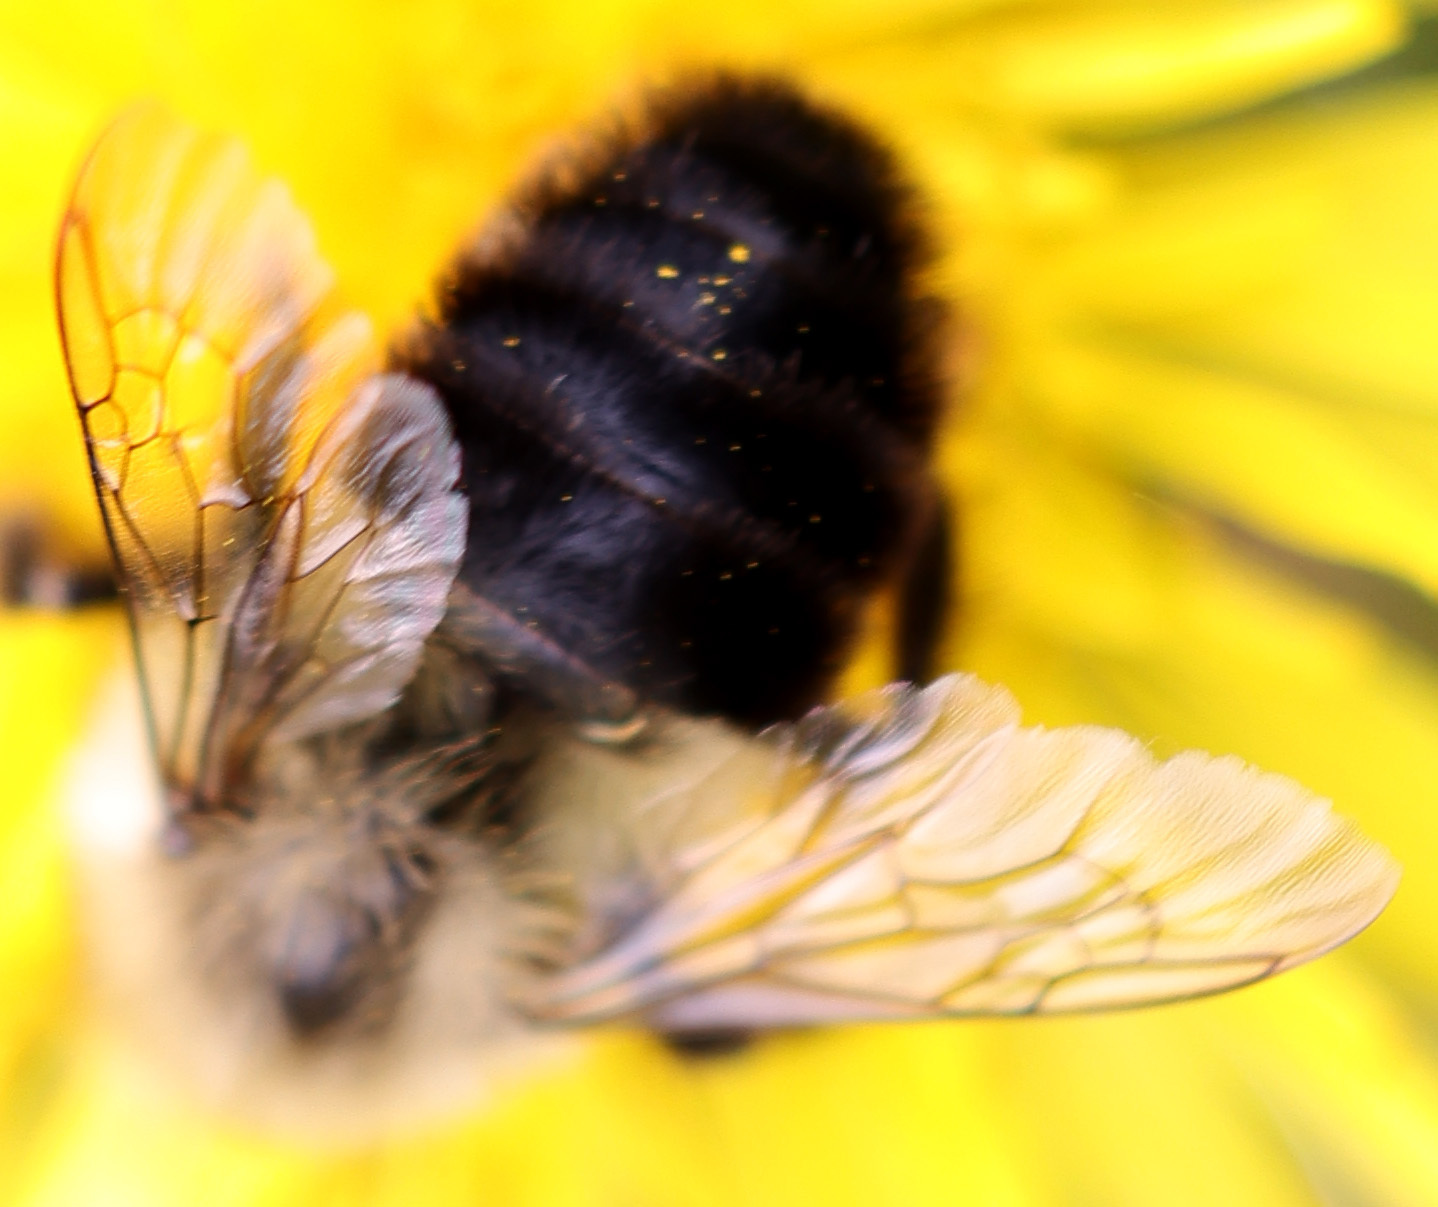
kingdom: Animalia
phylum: Arthropoda
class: Insecta
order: Hymenoptera
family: Apidae
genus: Bombus
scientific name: Bombus impatiens
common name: Common eastern bumble bee
